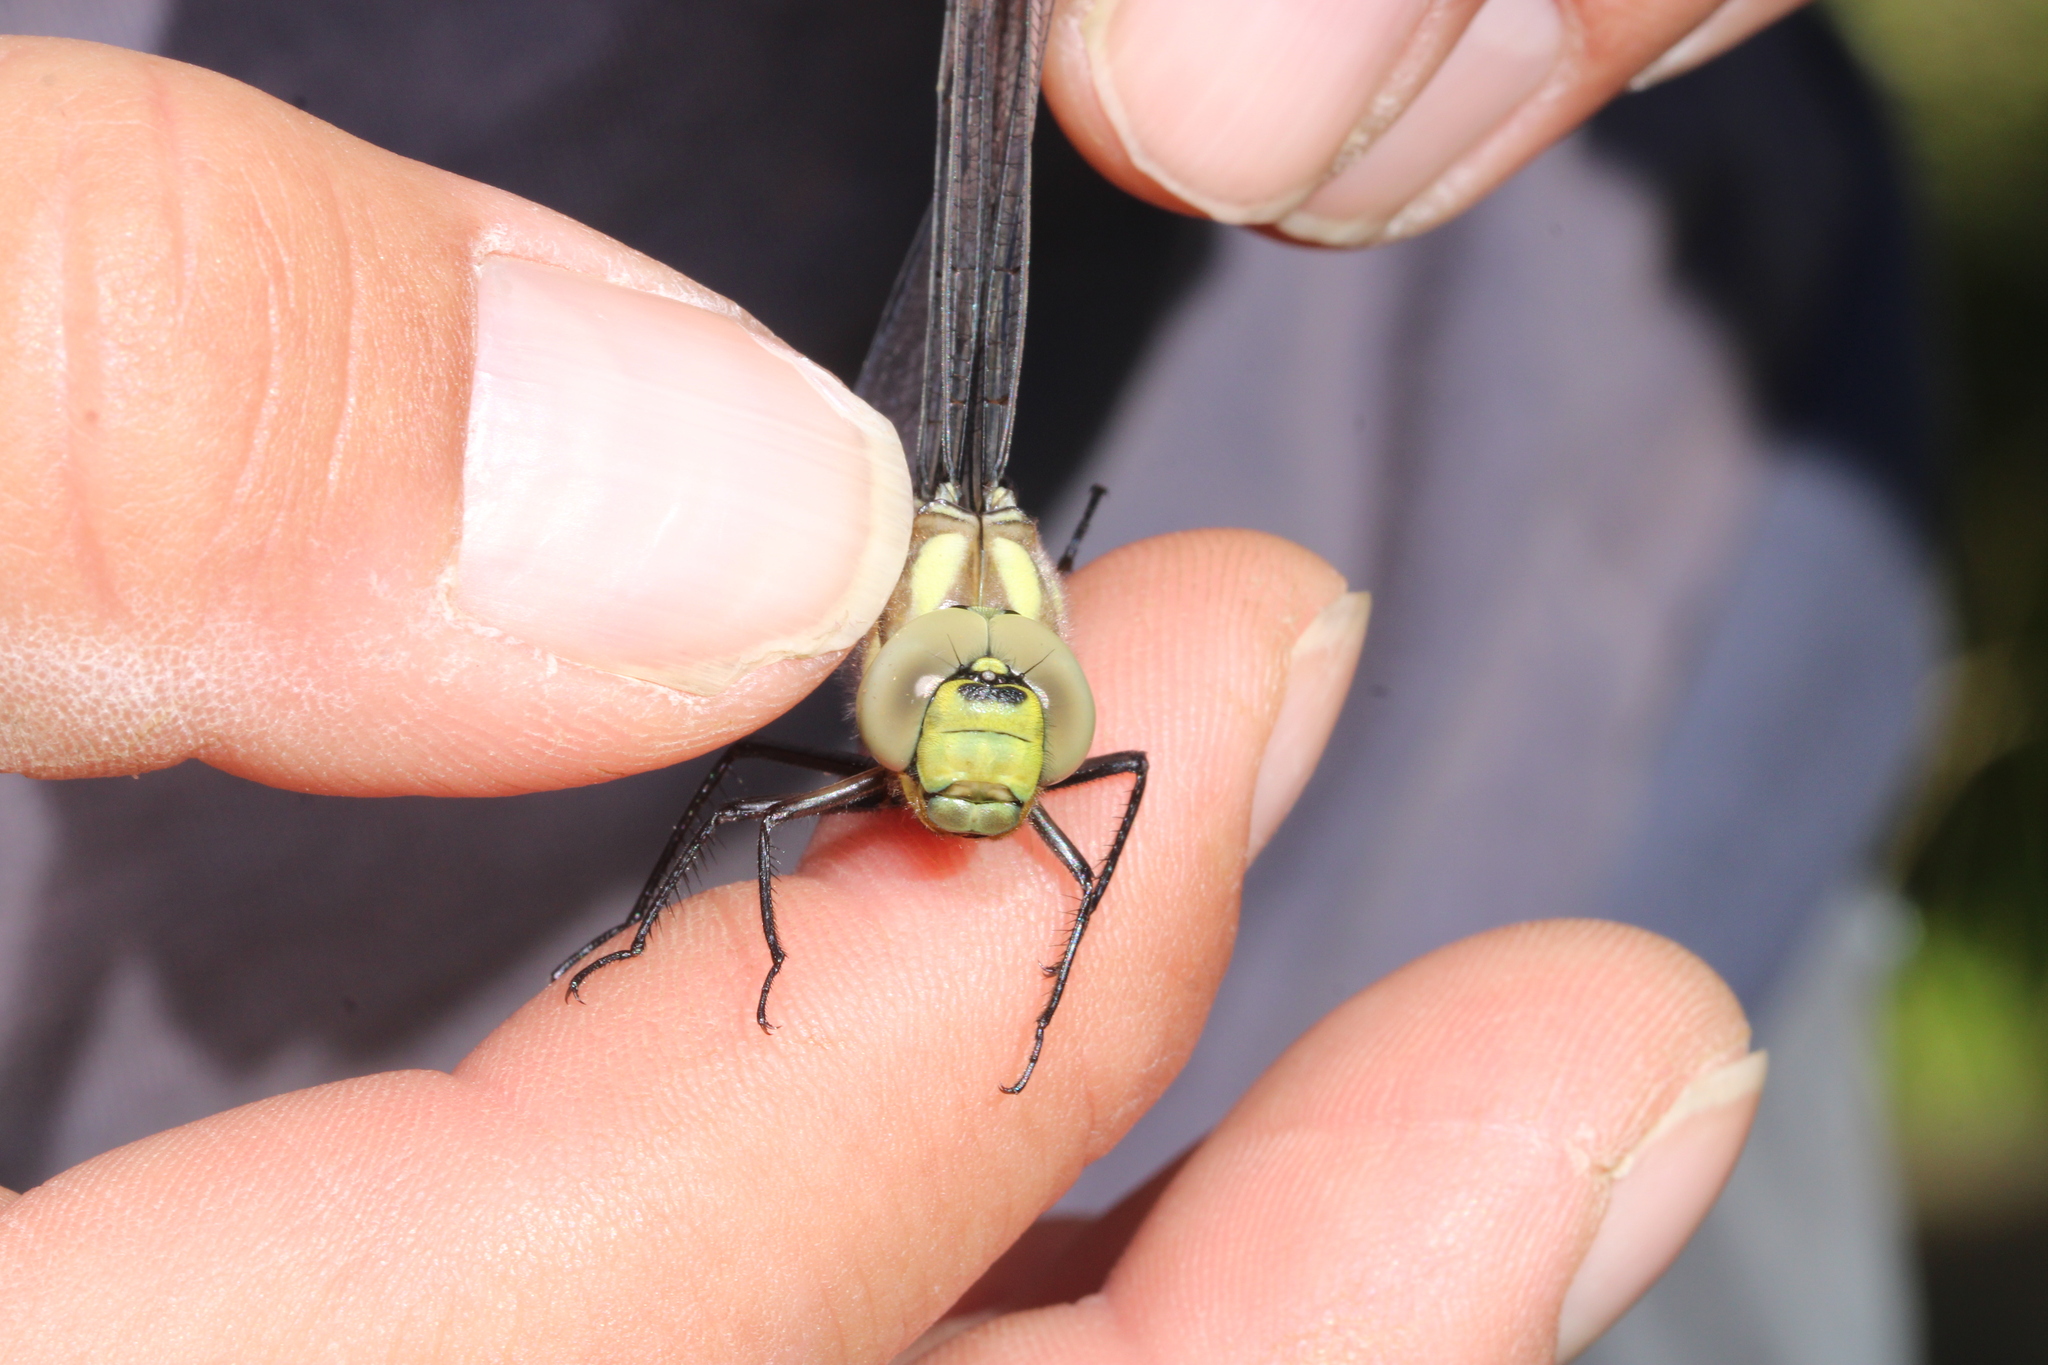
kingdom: Animalia
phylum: Arthropoda
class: Insecta
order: Odonata
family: Aeshnidae
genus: Aeshna
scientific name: Aeshna cyanea
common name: Southern hawker
